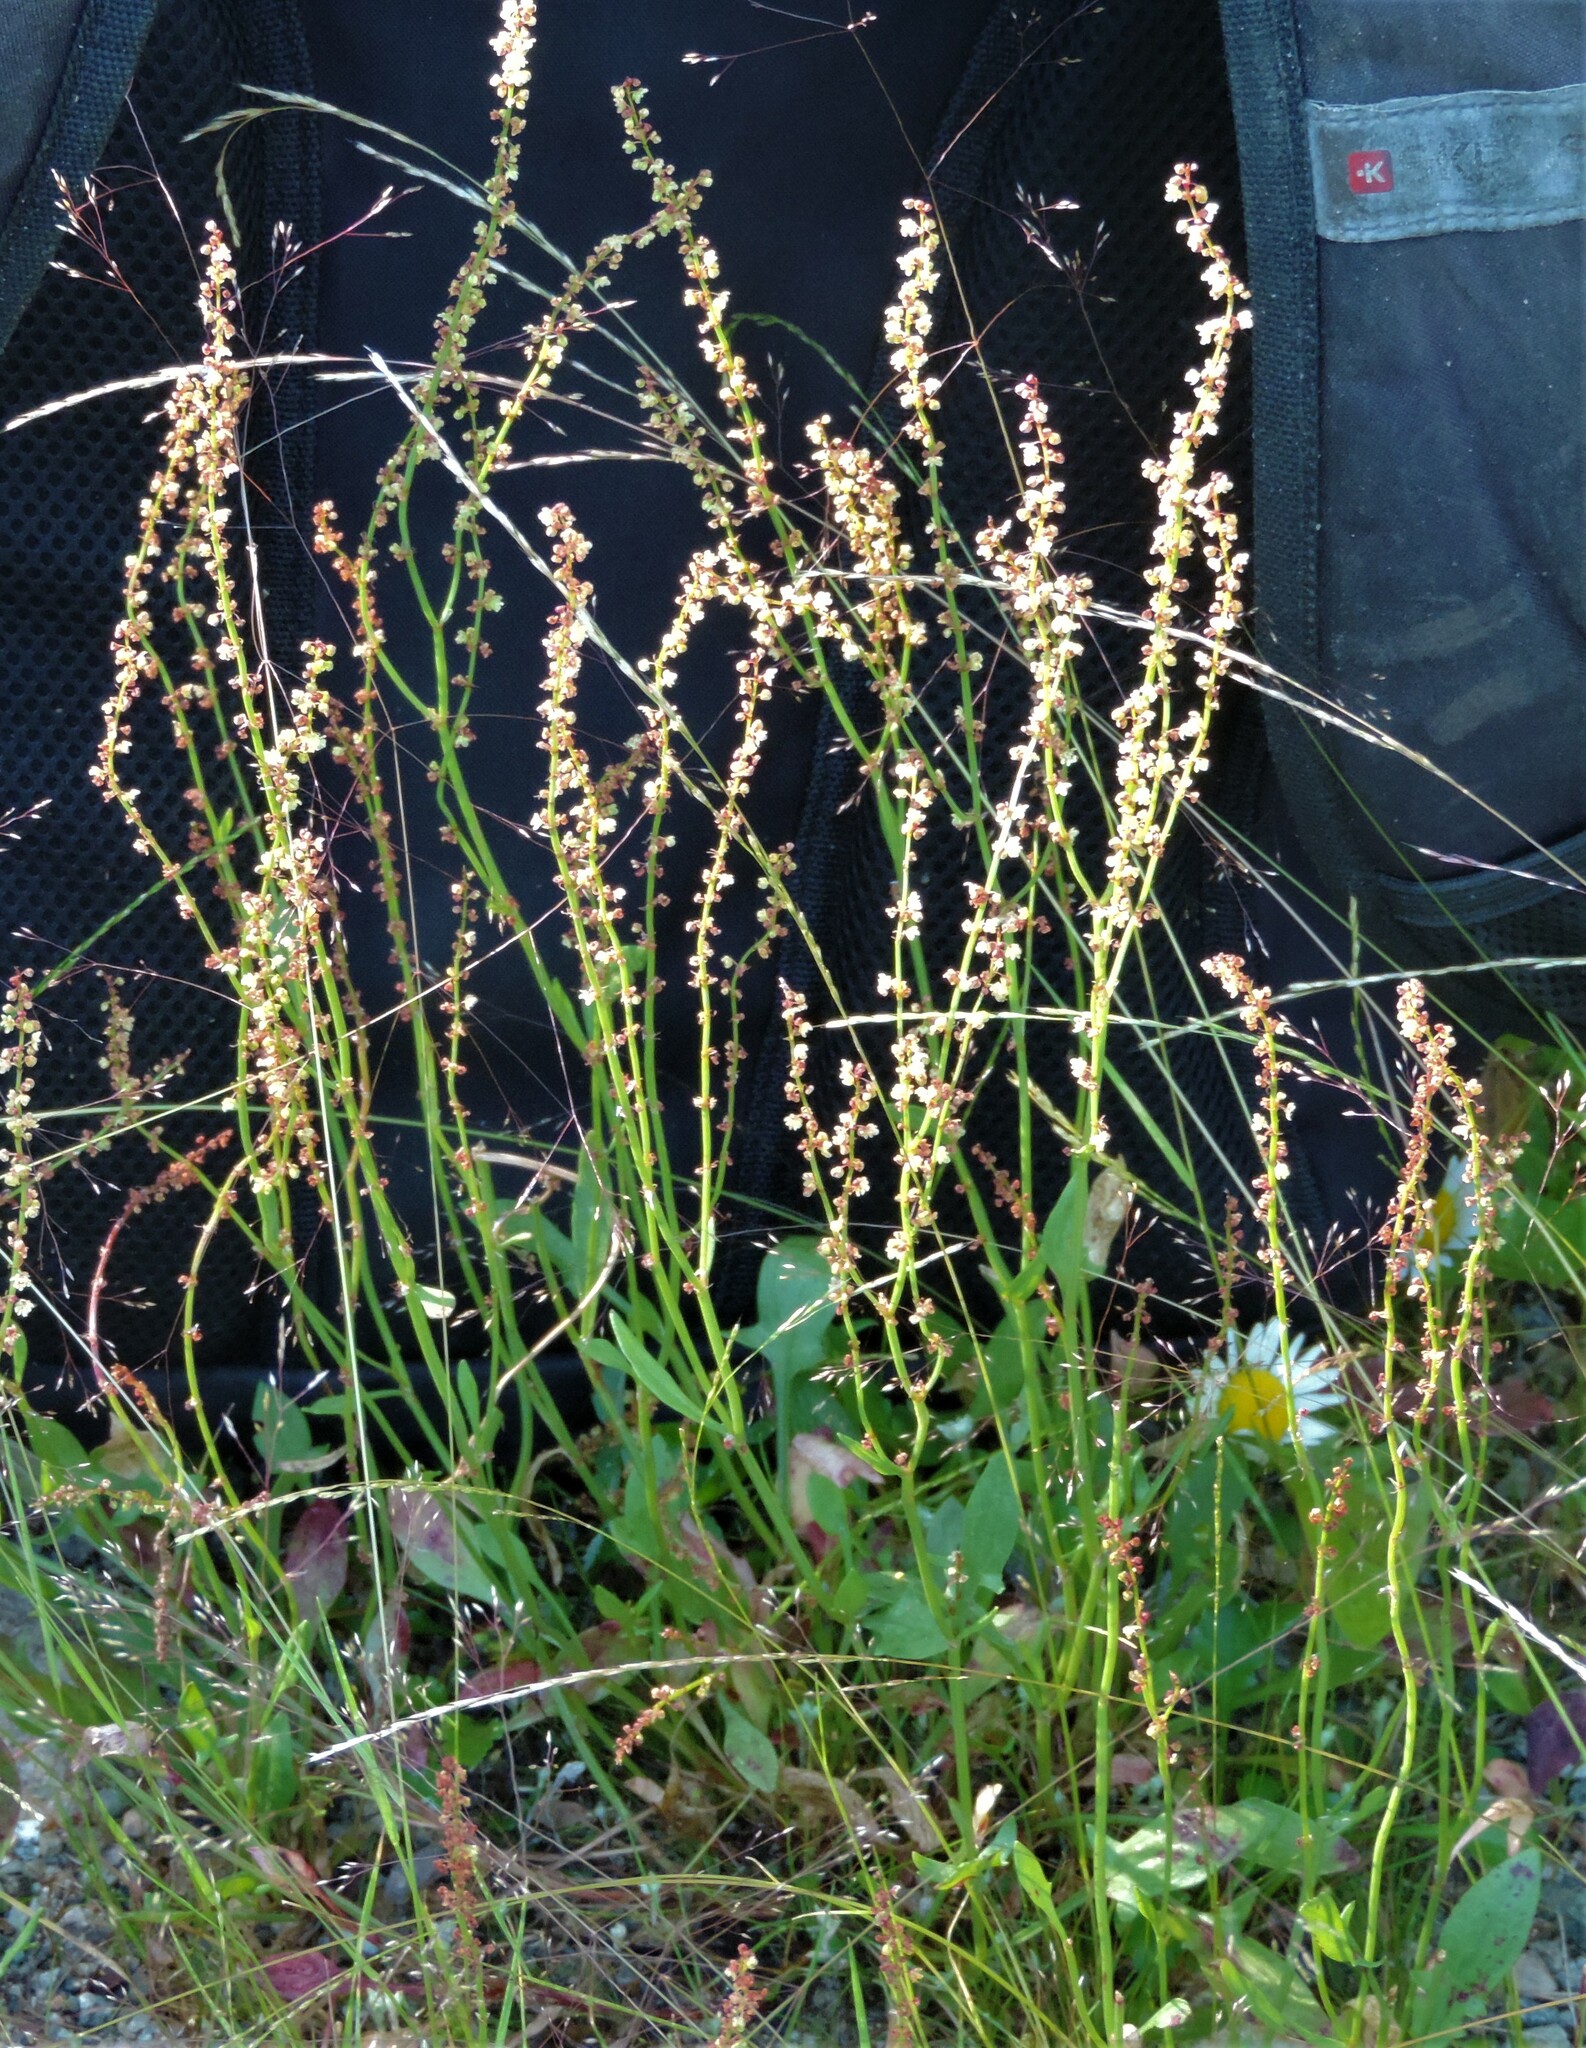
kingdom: Plantae
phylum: Tracheophyta
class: Magnoliopsida
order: Caryophyllales
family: Polygonaceae
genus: Rumex
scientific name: Rumex acetosella
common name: Common sheep sorrel
